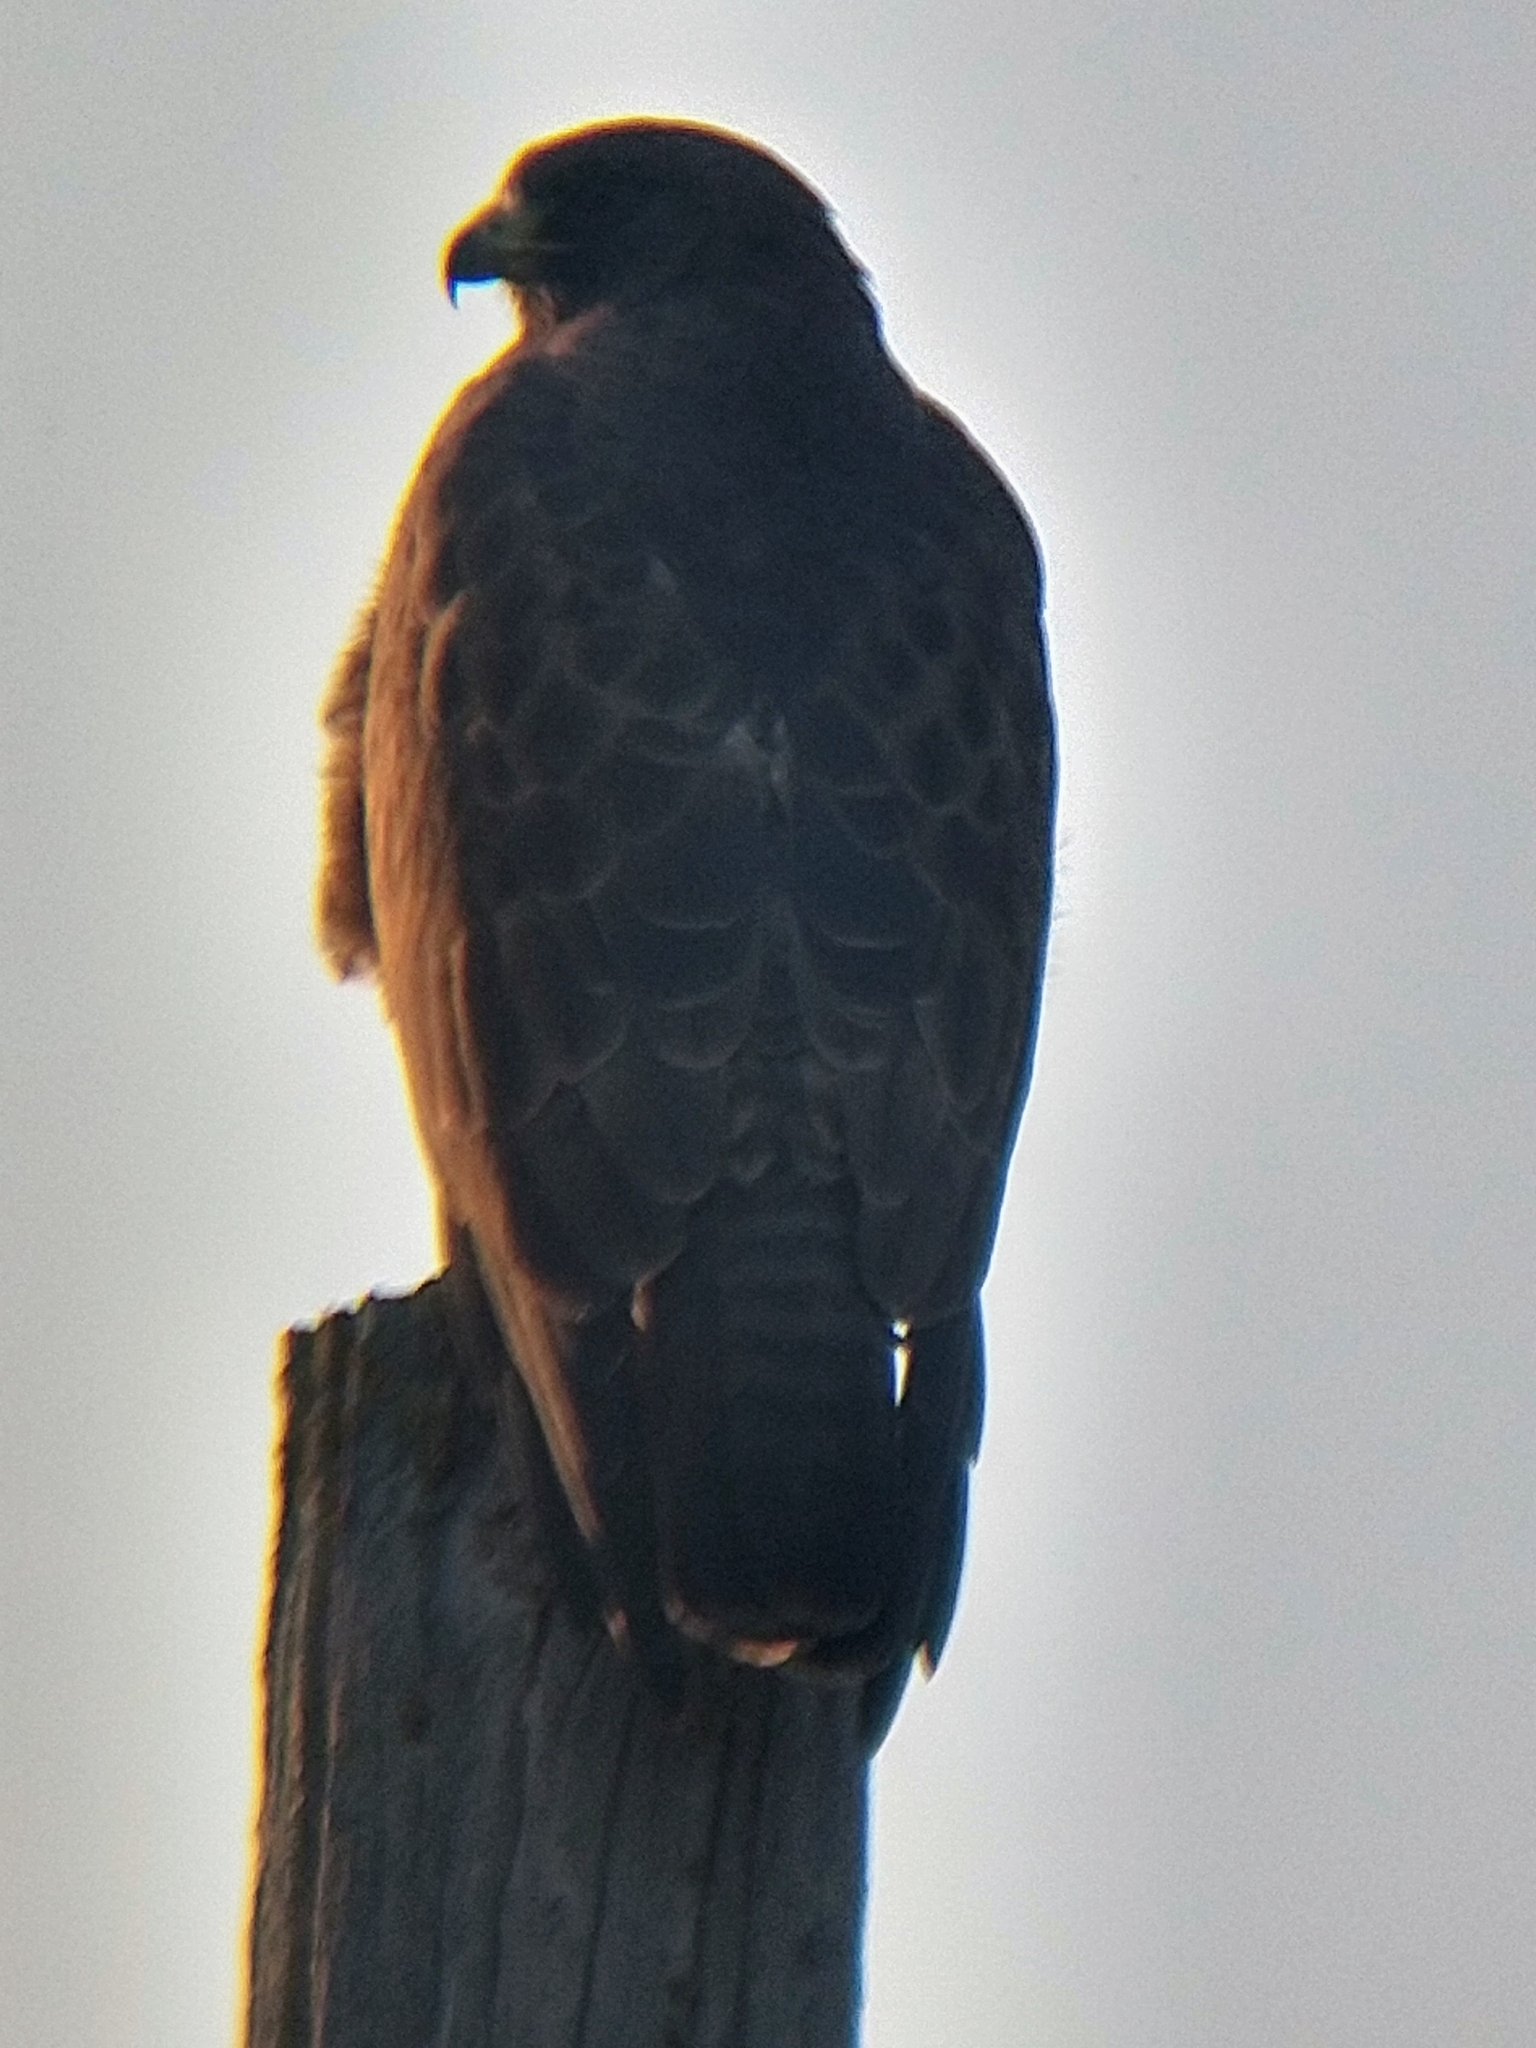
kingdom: Animalia
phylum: Chordata
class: Aves
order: Accipitriformes
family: Accipitridae
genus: Buteo
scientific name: Buteo swainsoni
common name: Swainson's hawk
